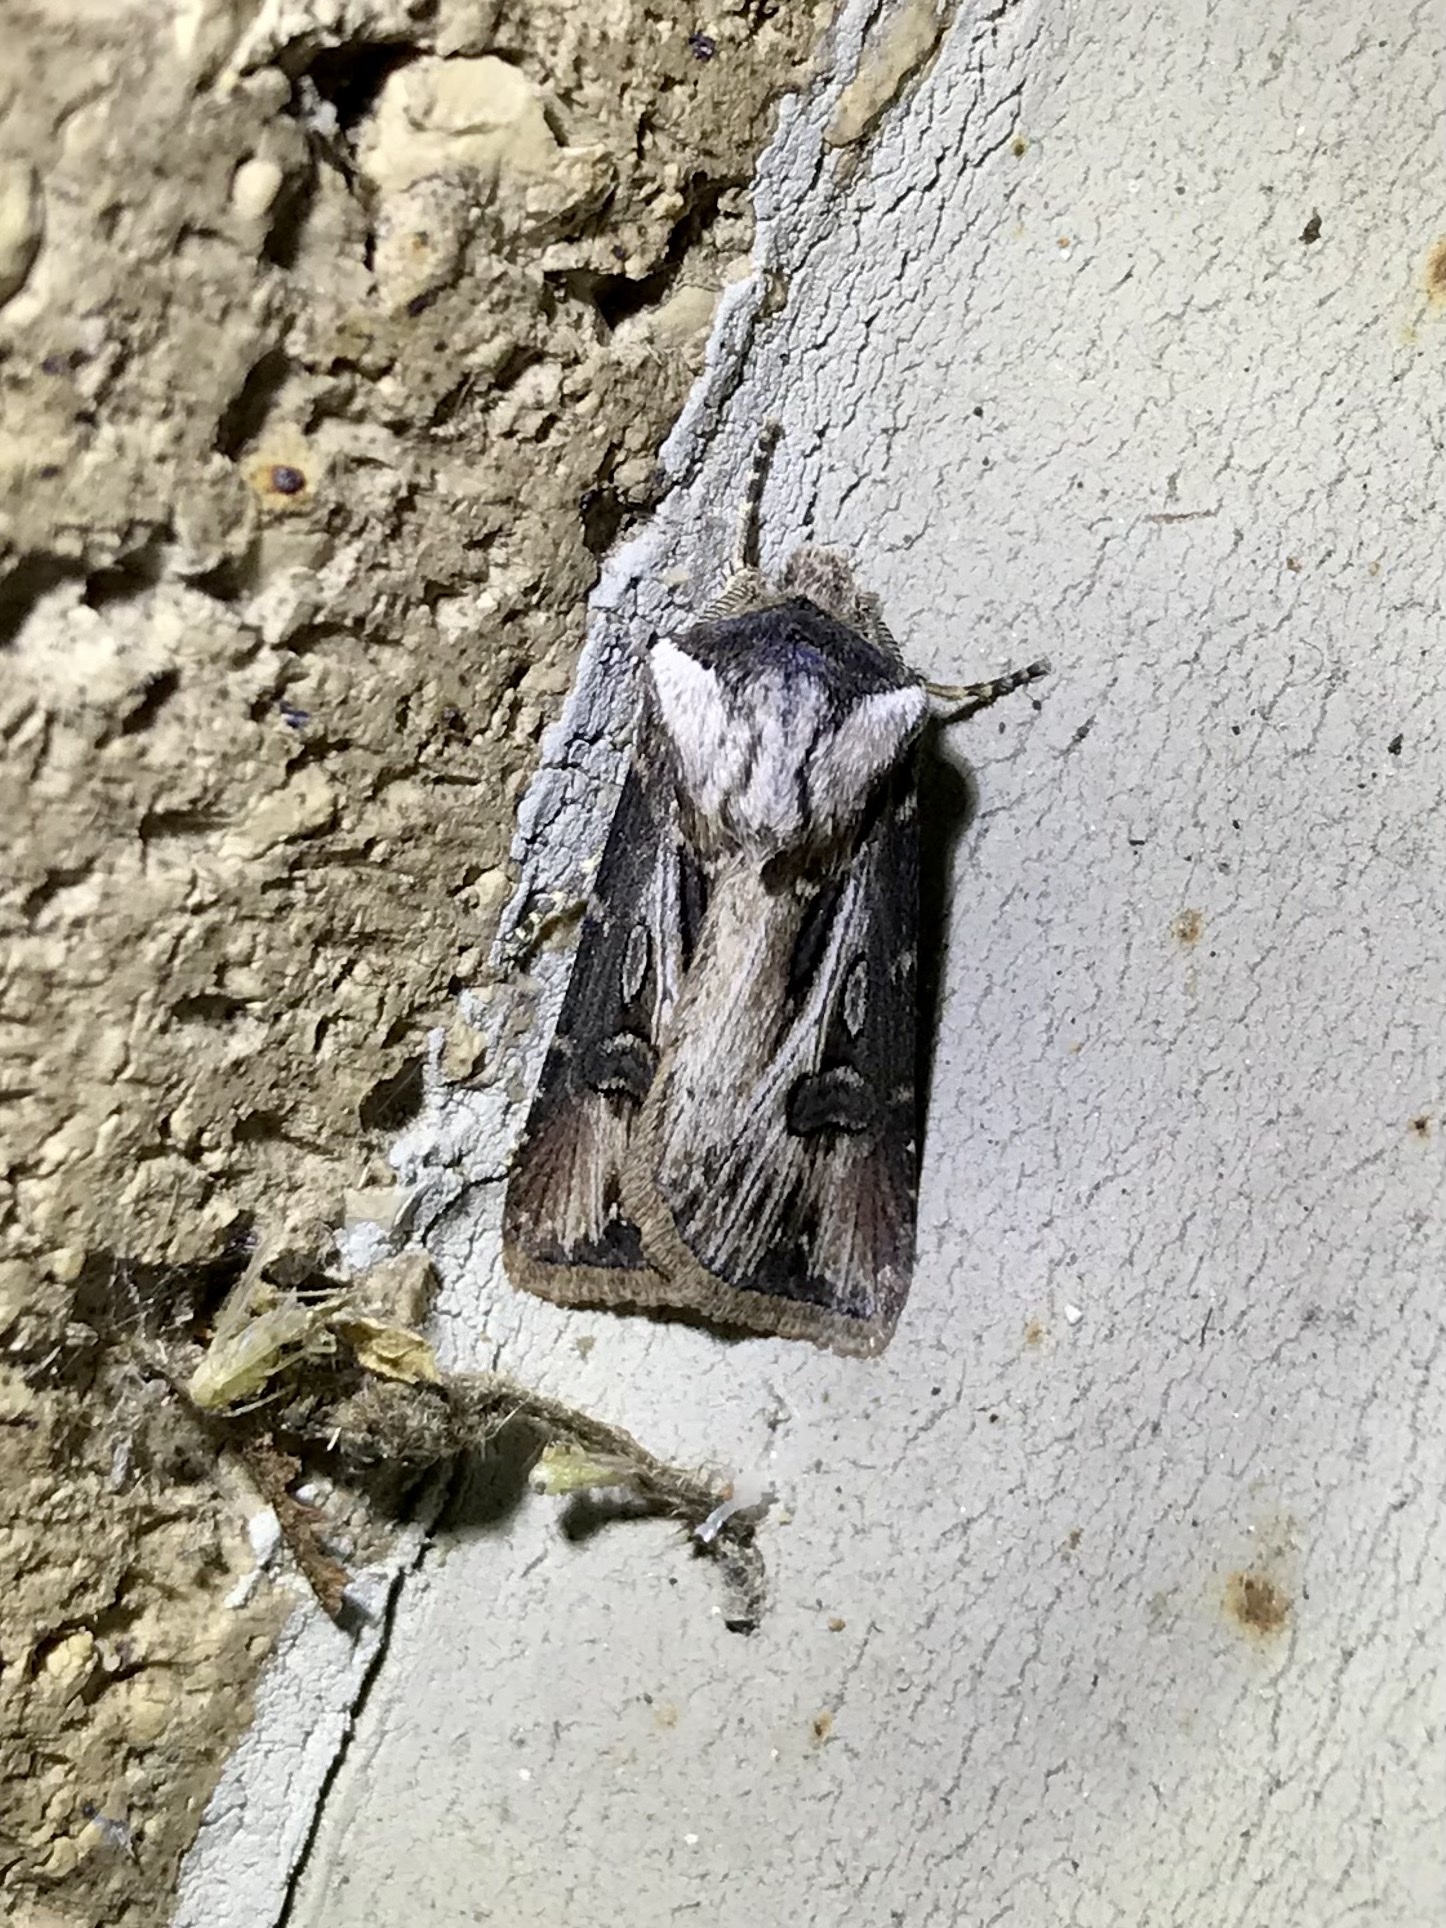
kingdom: Animalia
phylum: Arthropoda
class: Insecta
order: Lepidoptera
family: Noctuidae
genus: Agrotis
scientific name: Agrotis venerabilis
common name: Venerable dart
